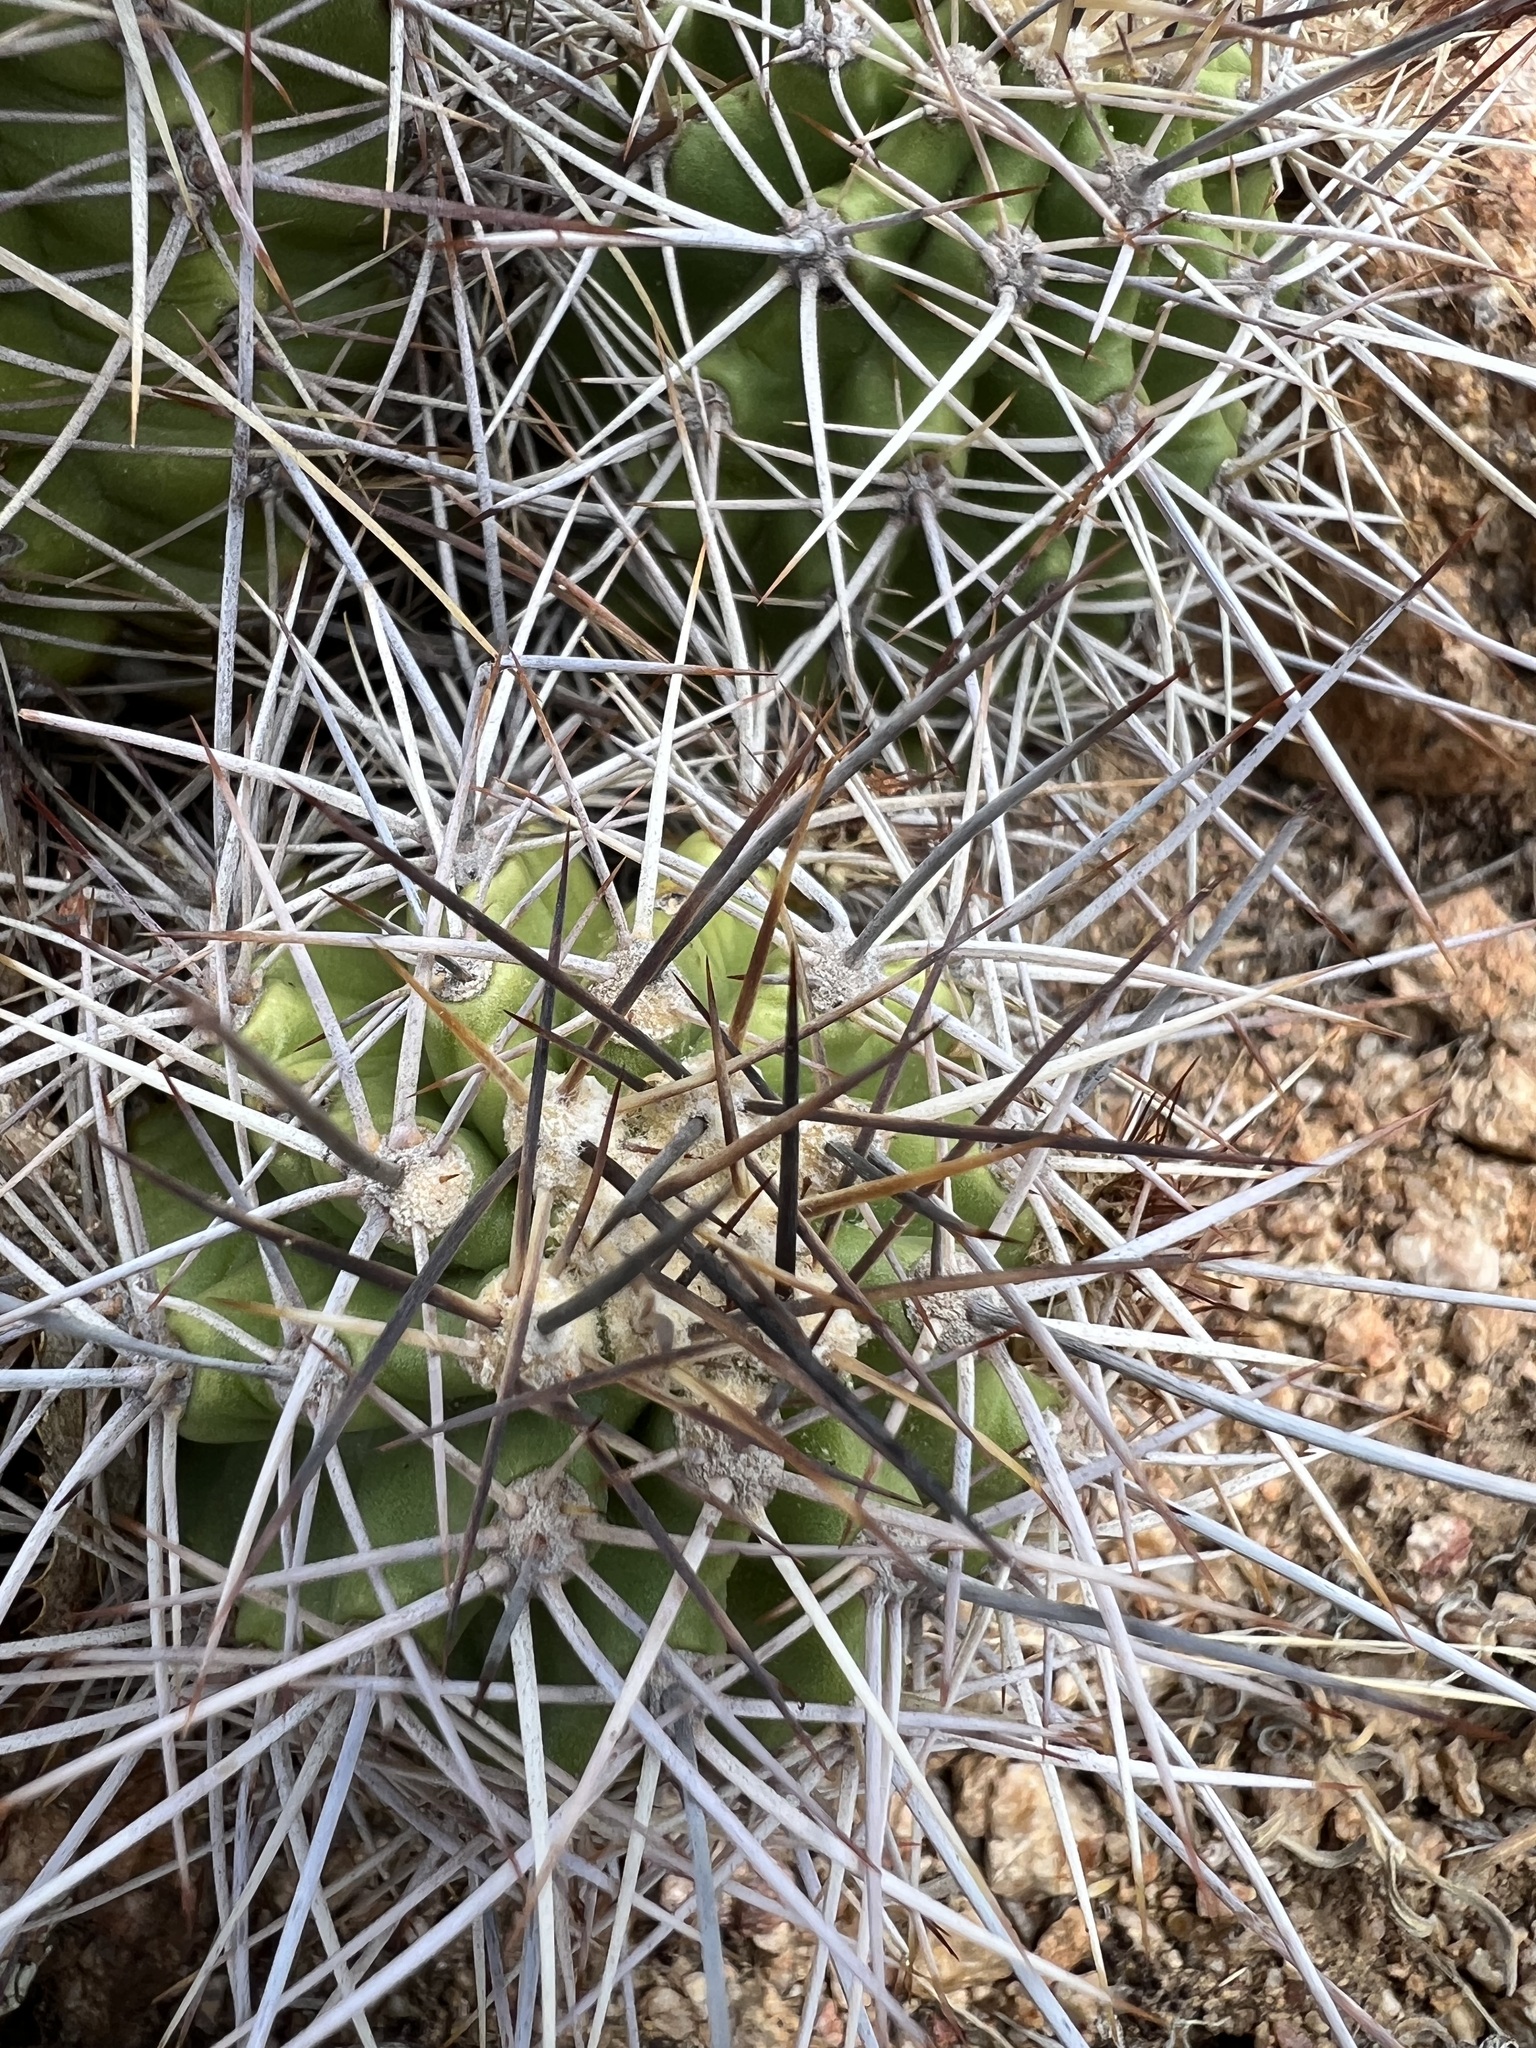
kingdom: Plantae
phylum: Tracheophyta
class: Magnoliopsida
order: Caryophyllales
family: Cactaceae
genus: Echinocereus
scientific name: Echinocereus bakeri
